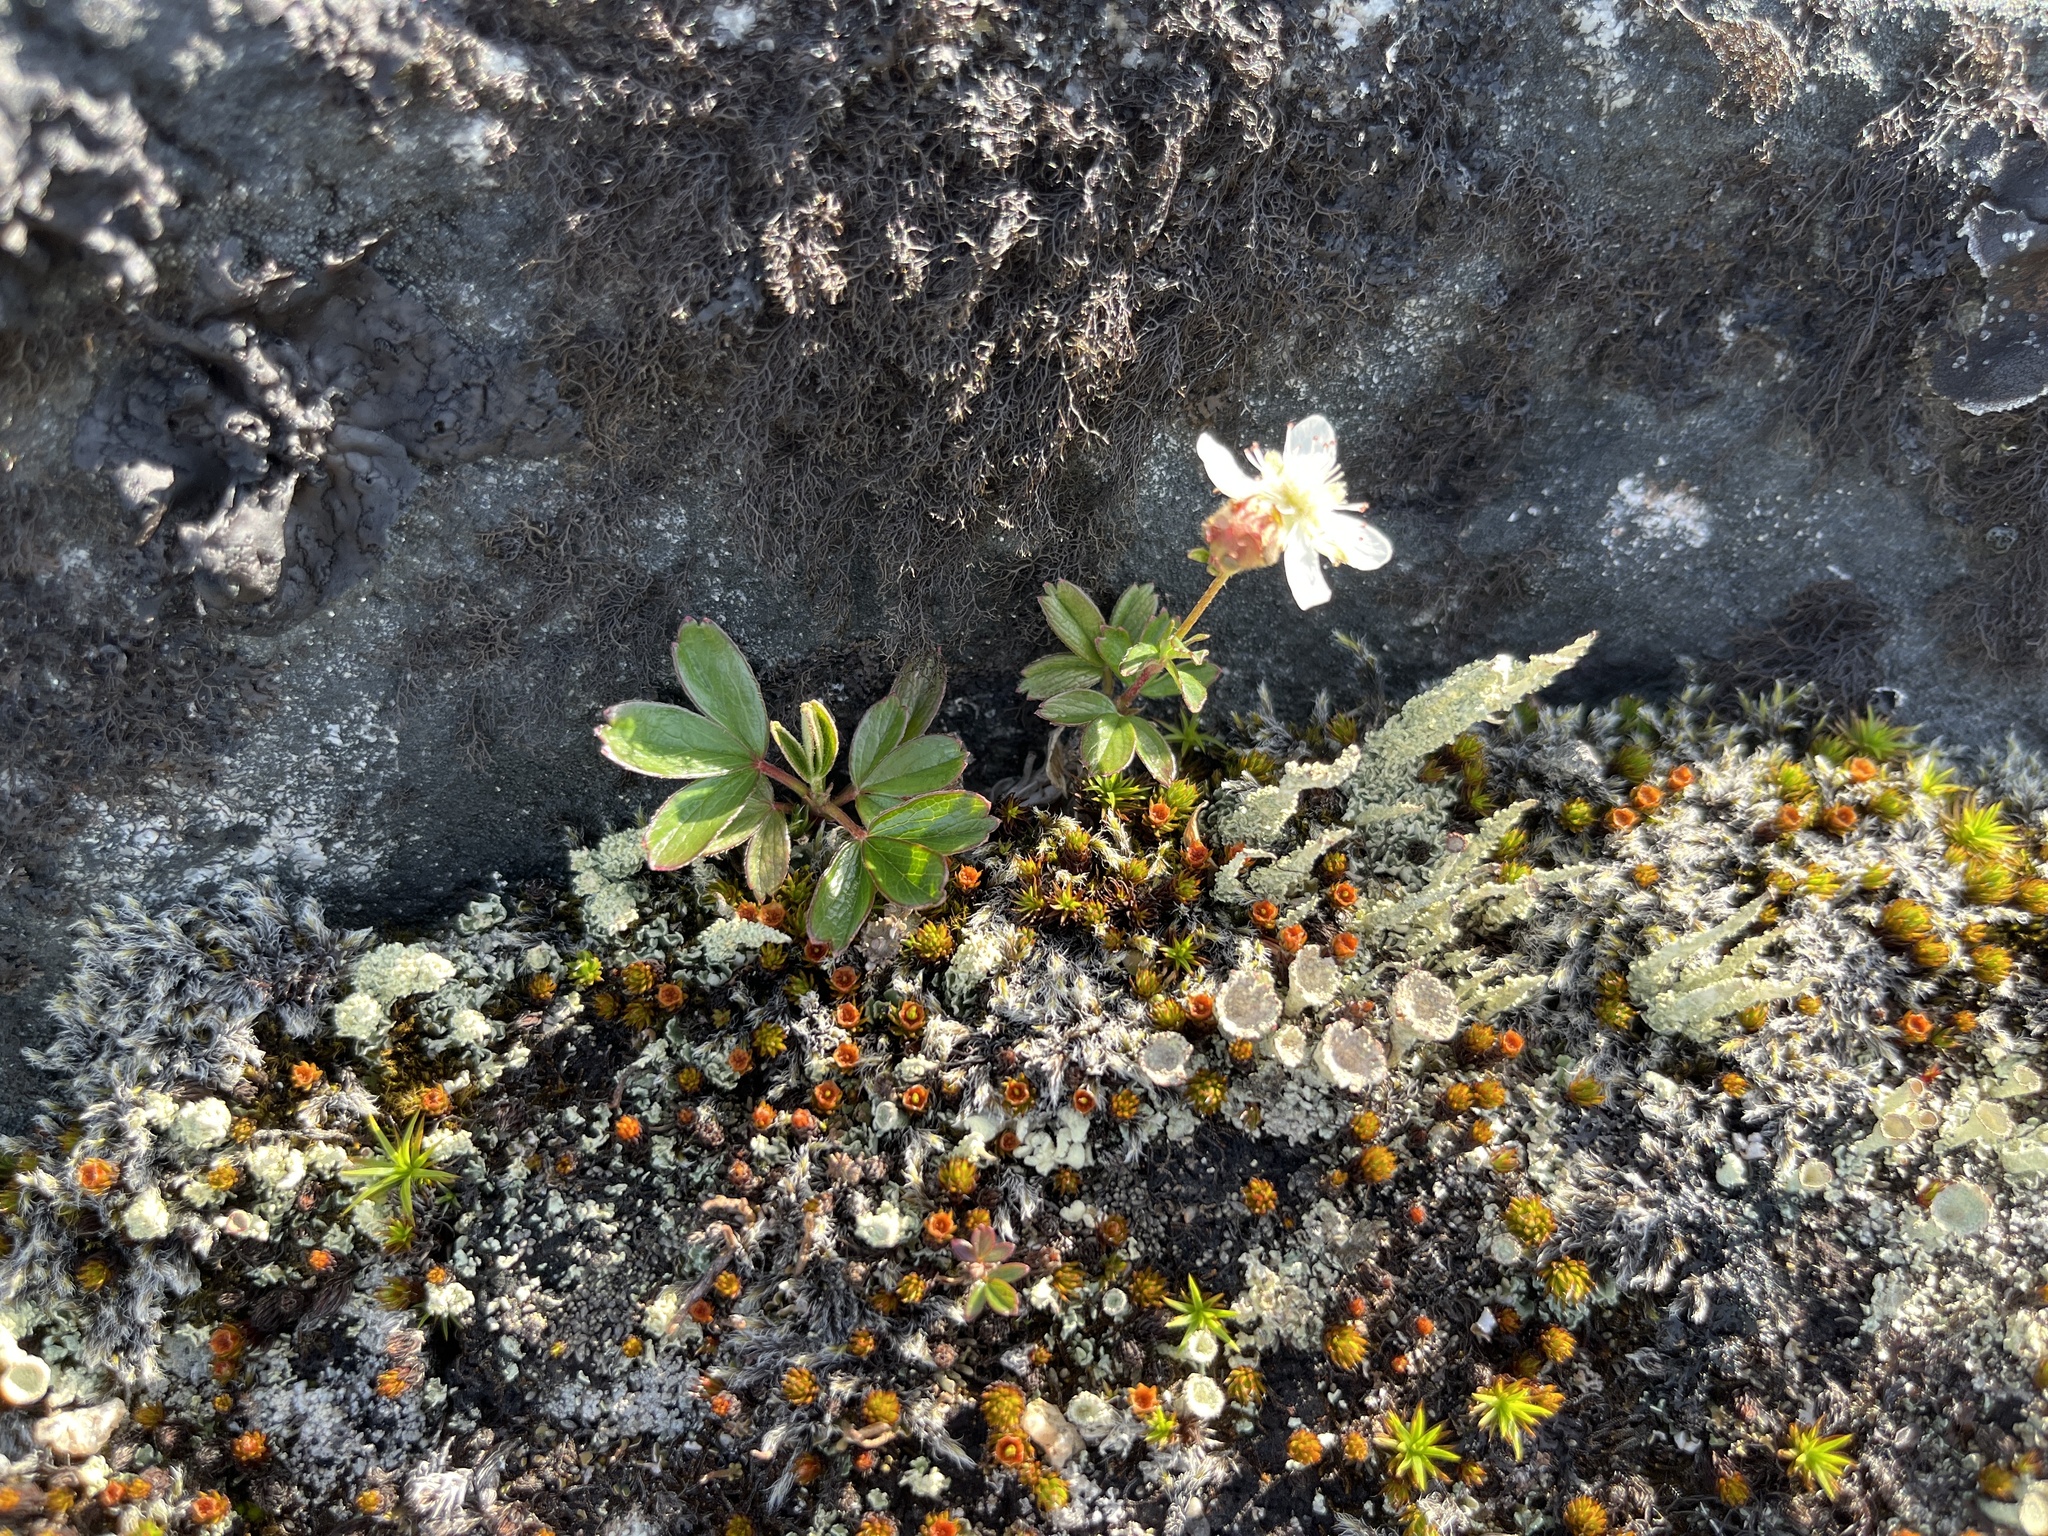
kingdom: Plantae
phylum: Tracheophyta
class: Magnoliopsida
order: Rosales
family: Rosaceae
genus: Sibbaldia
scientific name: Sibbaldia tridentata
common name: Three-toothed cinquefoil
